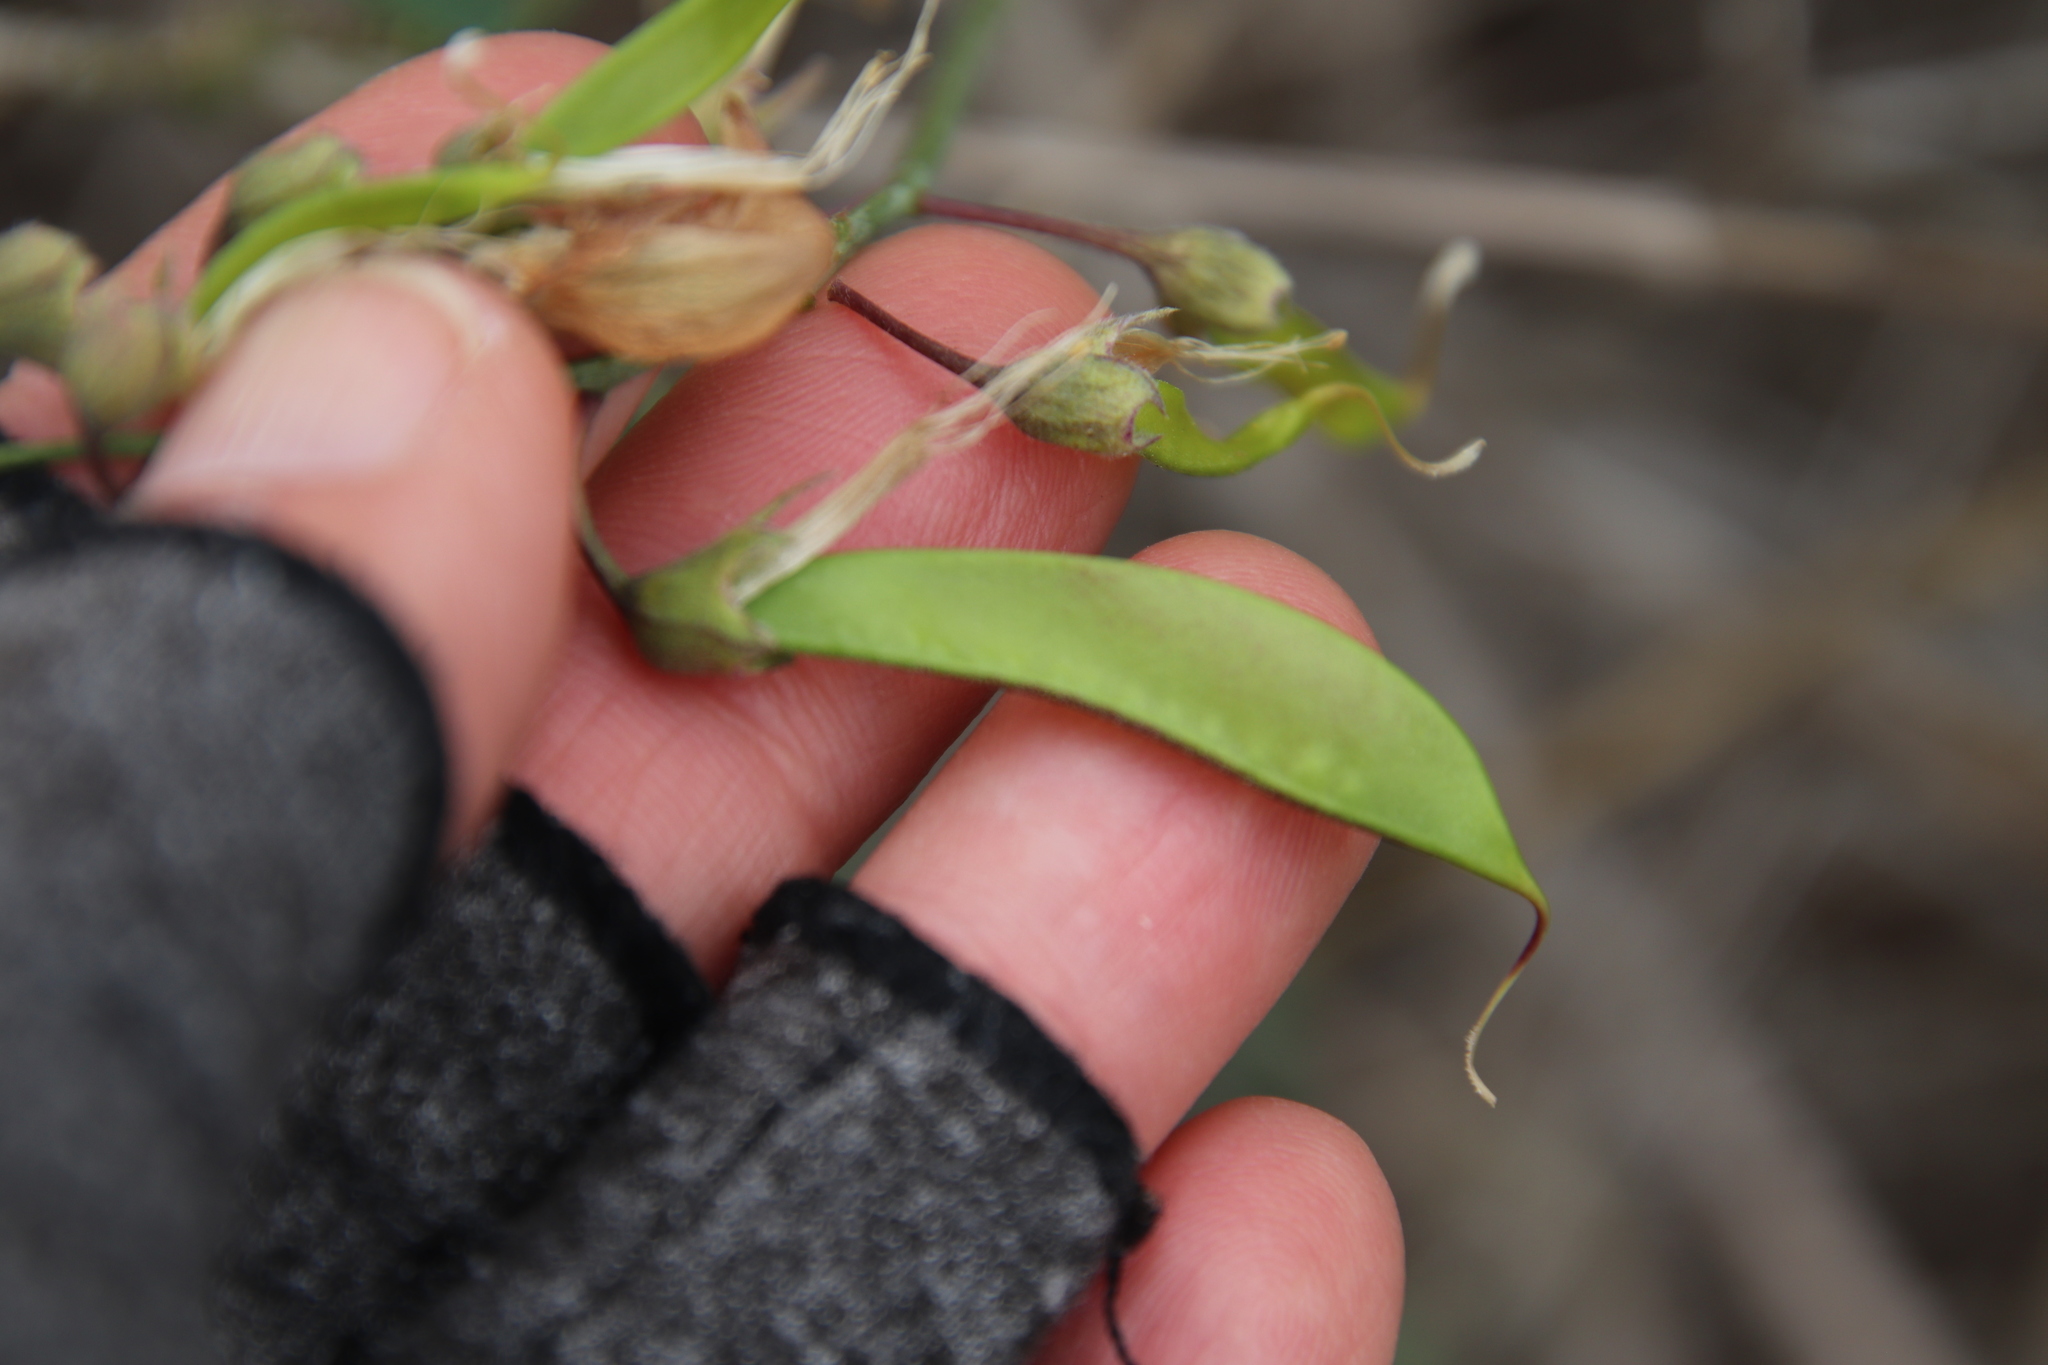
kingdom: Plantae
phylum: Tracheophyta
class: Magnoliopsida
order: Fabales
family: Fabaceae
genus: Lathyrus
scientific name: Lathyrus vestitus
